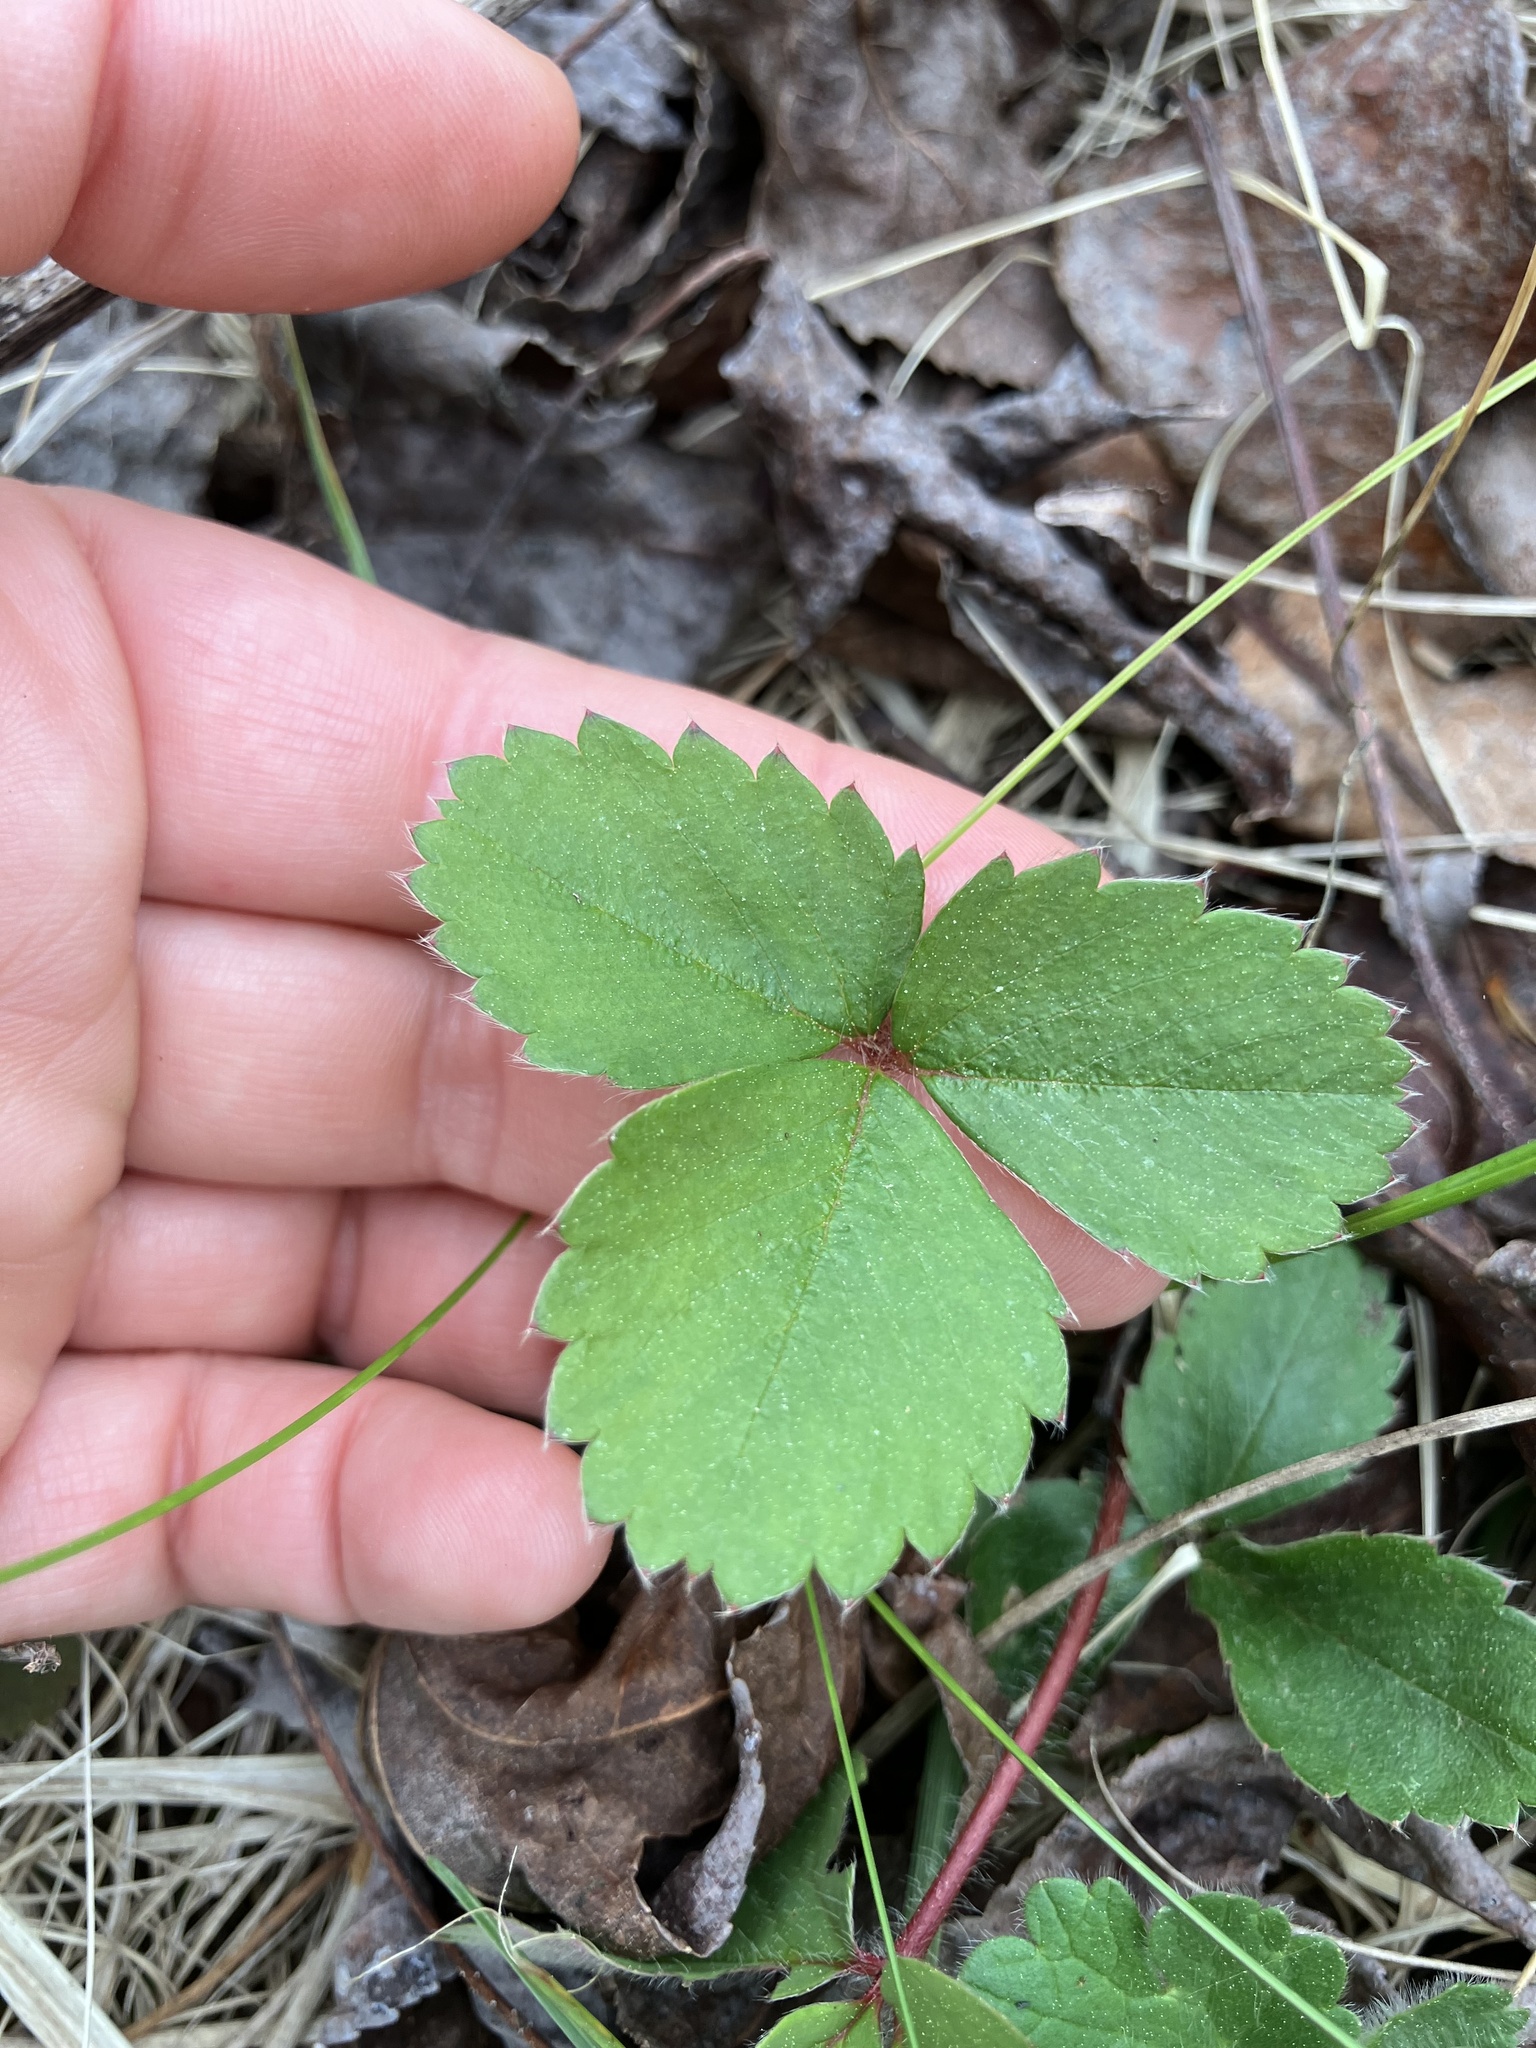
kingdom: Plantae
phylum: Tracheophyta
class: Magnoliopsida
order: Rosales
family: Rosaceae
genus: Fragaria
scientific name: Fragaria virginiana
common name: Thickleaved wild strawberry
